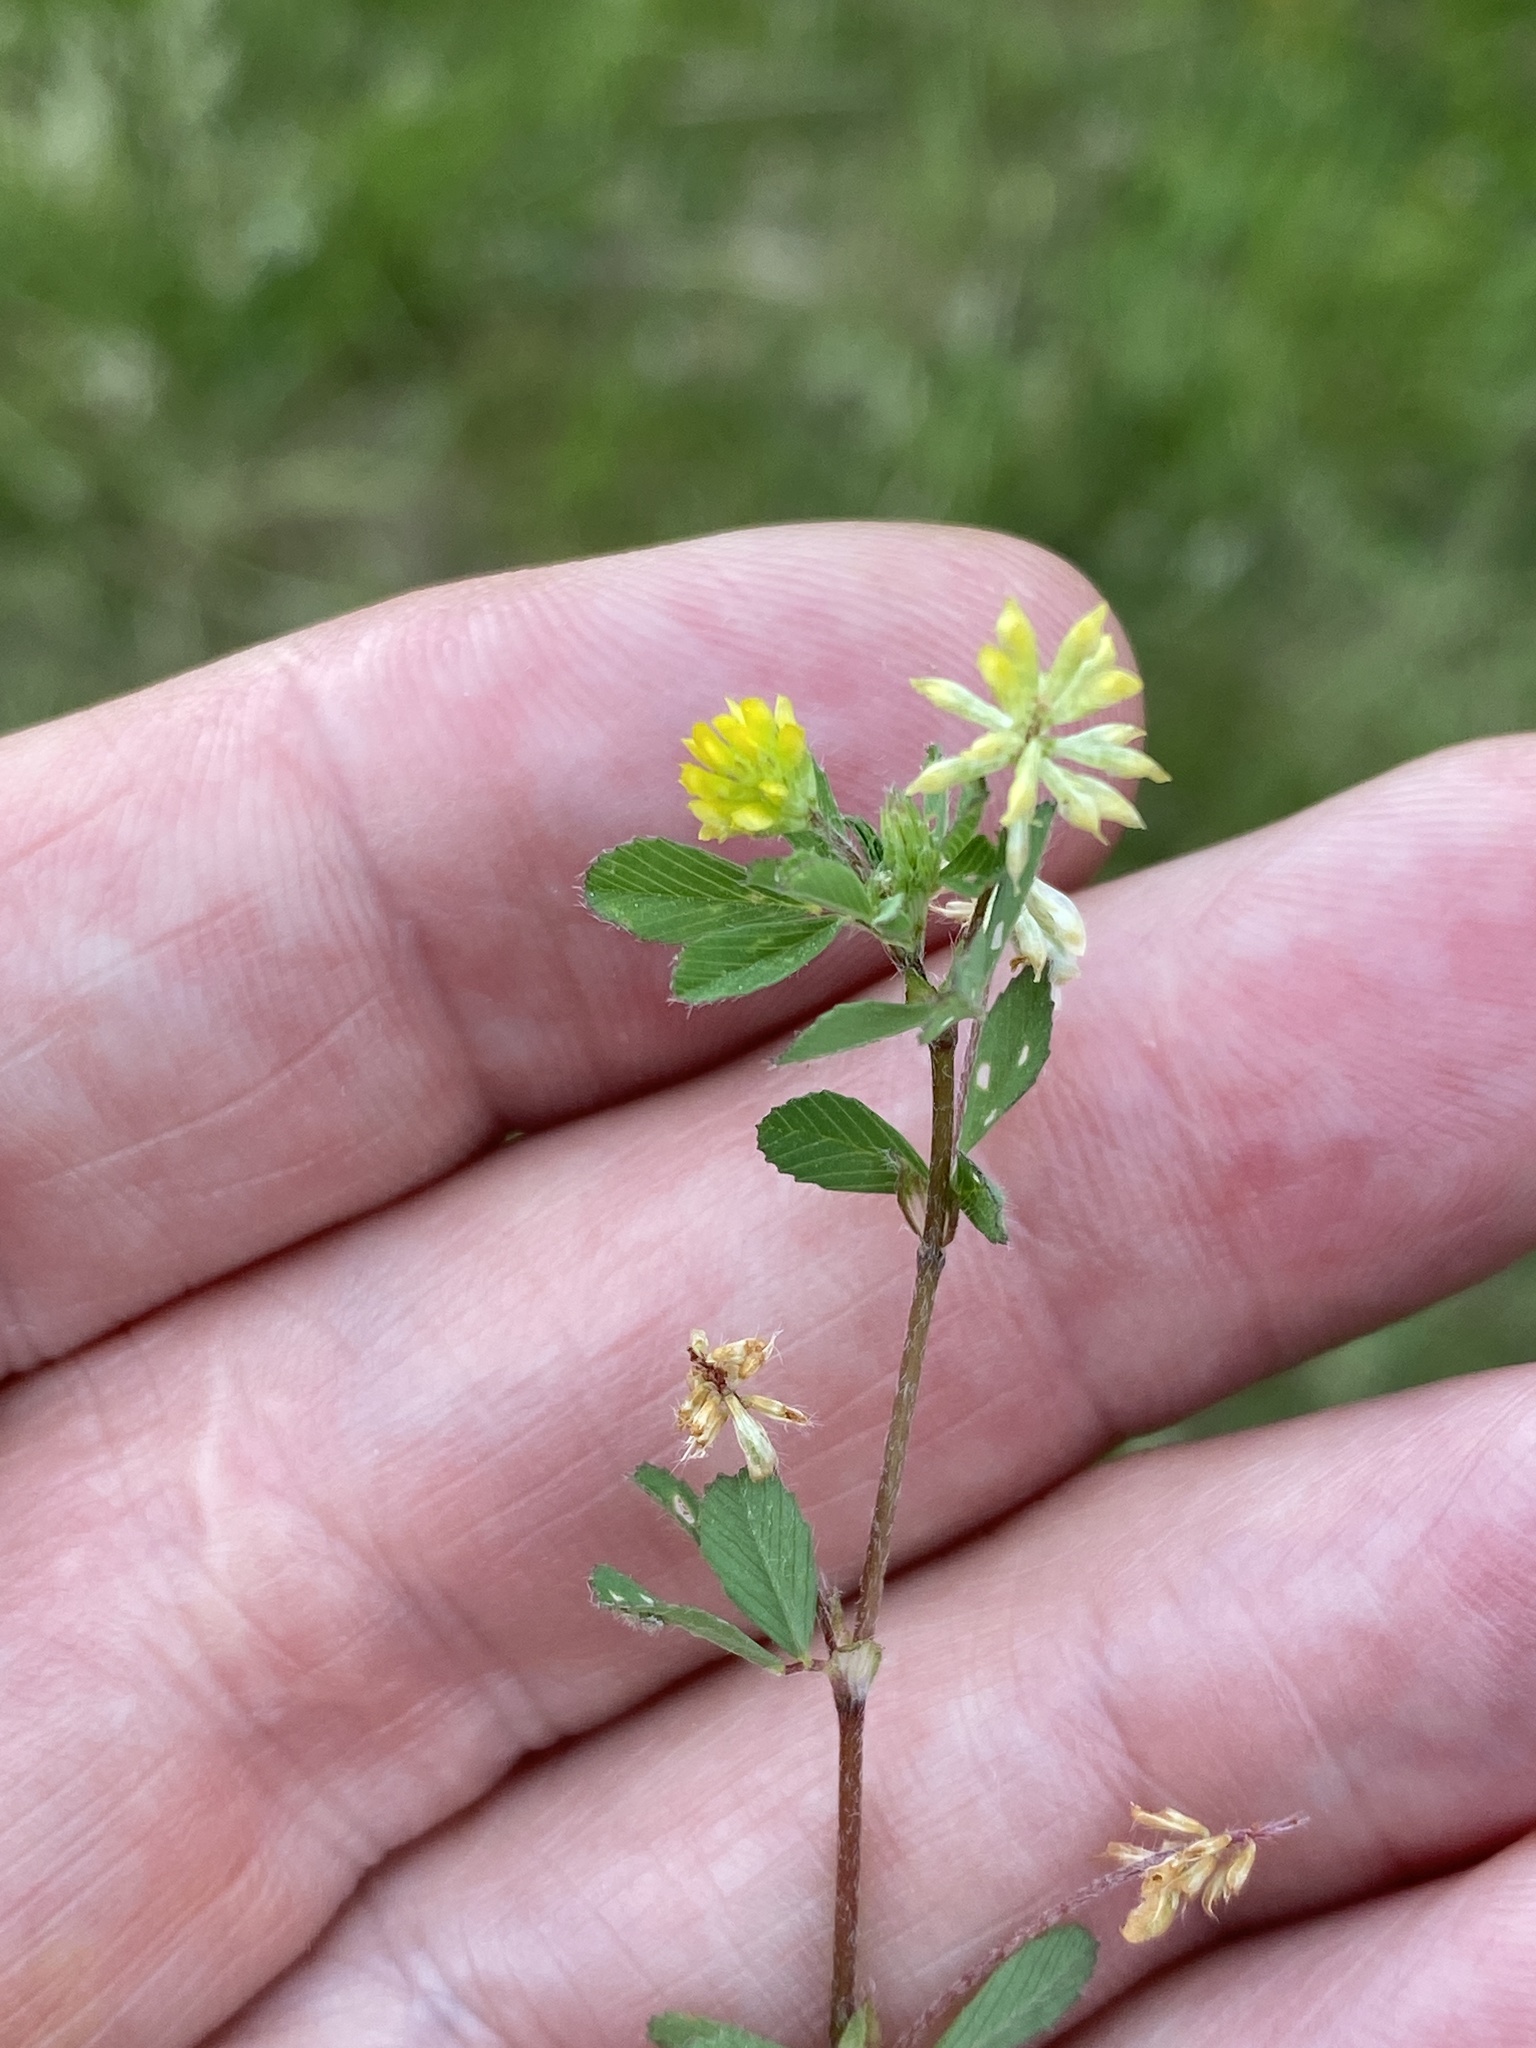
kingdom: Plantae
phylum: Tracheophyta
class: Magnoliopsida
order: Fabales
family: Fabaceae
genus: Trifolium
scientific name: Trifolium dubium
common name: Suckling clover
